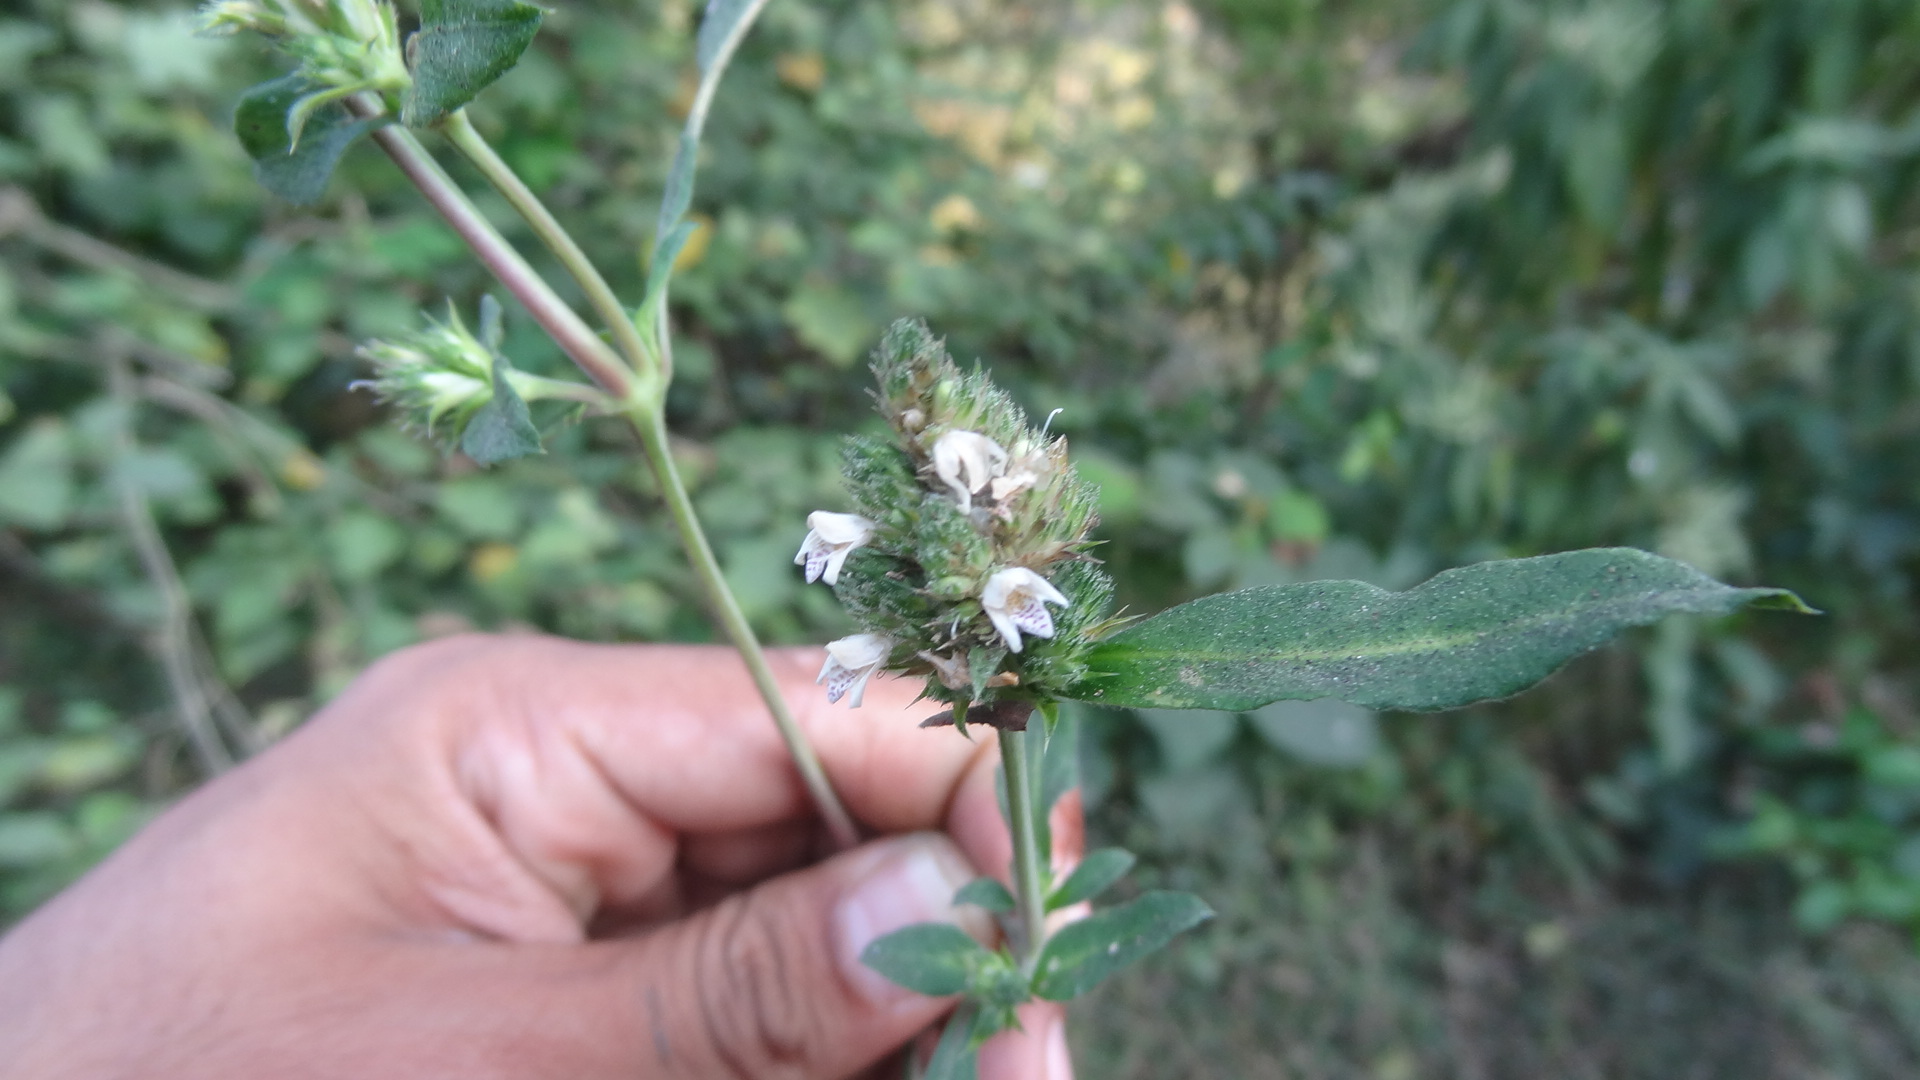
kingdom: Plantae
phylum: Tracheophyta
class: Magnoliopsida
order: Lamiales
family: Acanthaceae
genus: Lepidagathis
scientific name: Lepidagathis incurva
